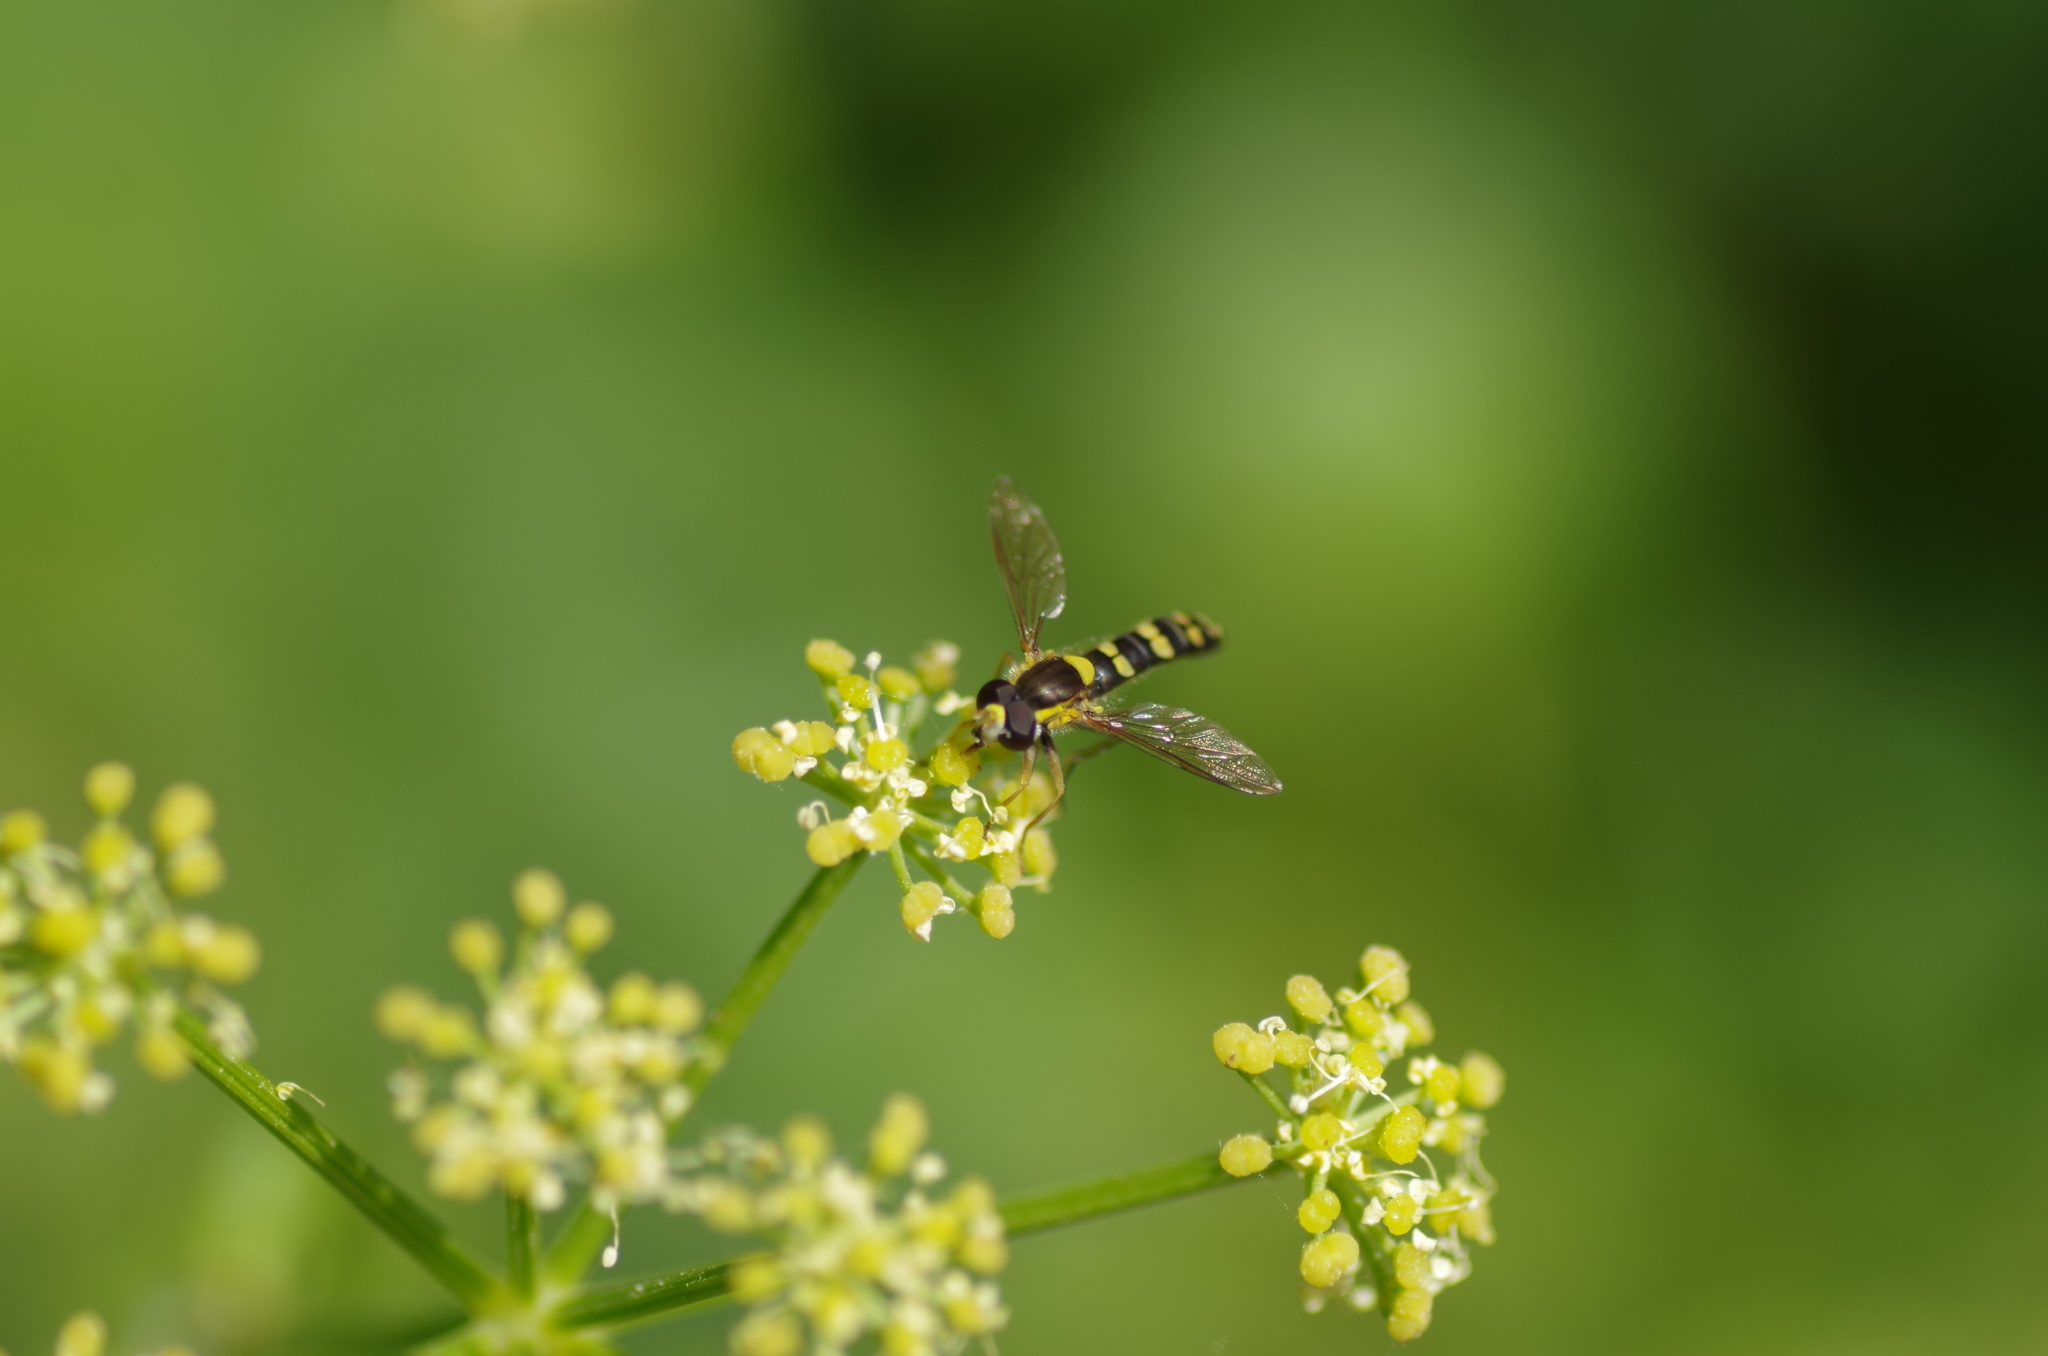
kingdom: Animalia
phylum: Arthropoda
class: Insecta
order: Diptera
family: Syrphidae
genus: Sphaerophoria
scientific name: Sphaerophoria scripta
